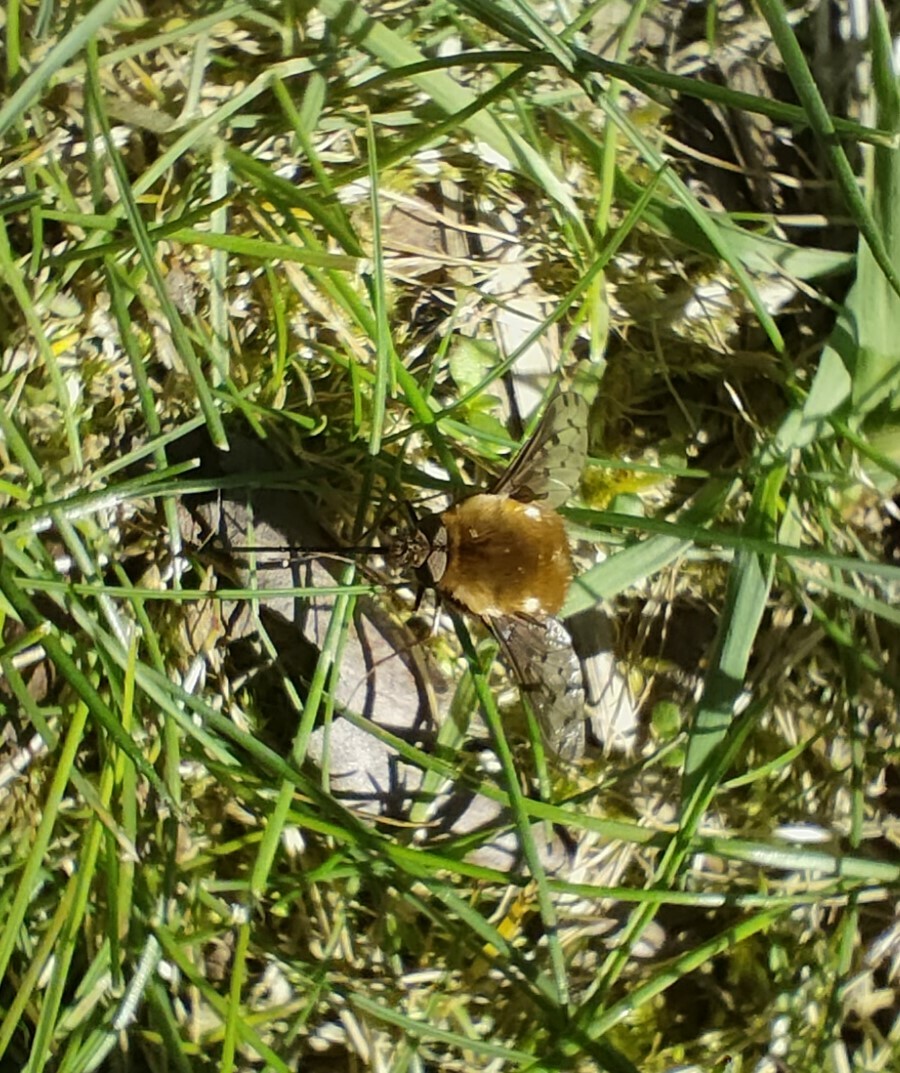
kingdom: Animalia
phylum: Arthropoda
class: Insecta
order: Diptera
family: Bombyliidae
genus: Bombylius
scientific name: Bombylius discolor
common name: Dotted bee-fly
